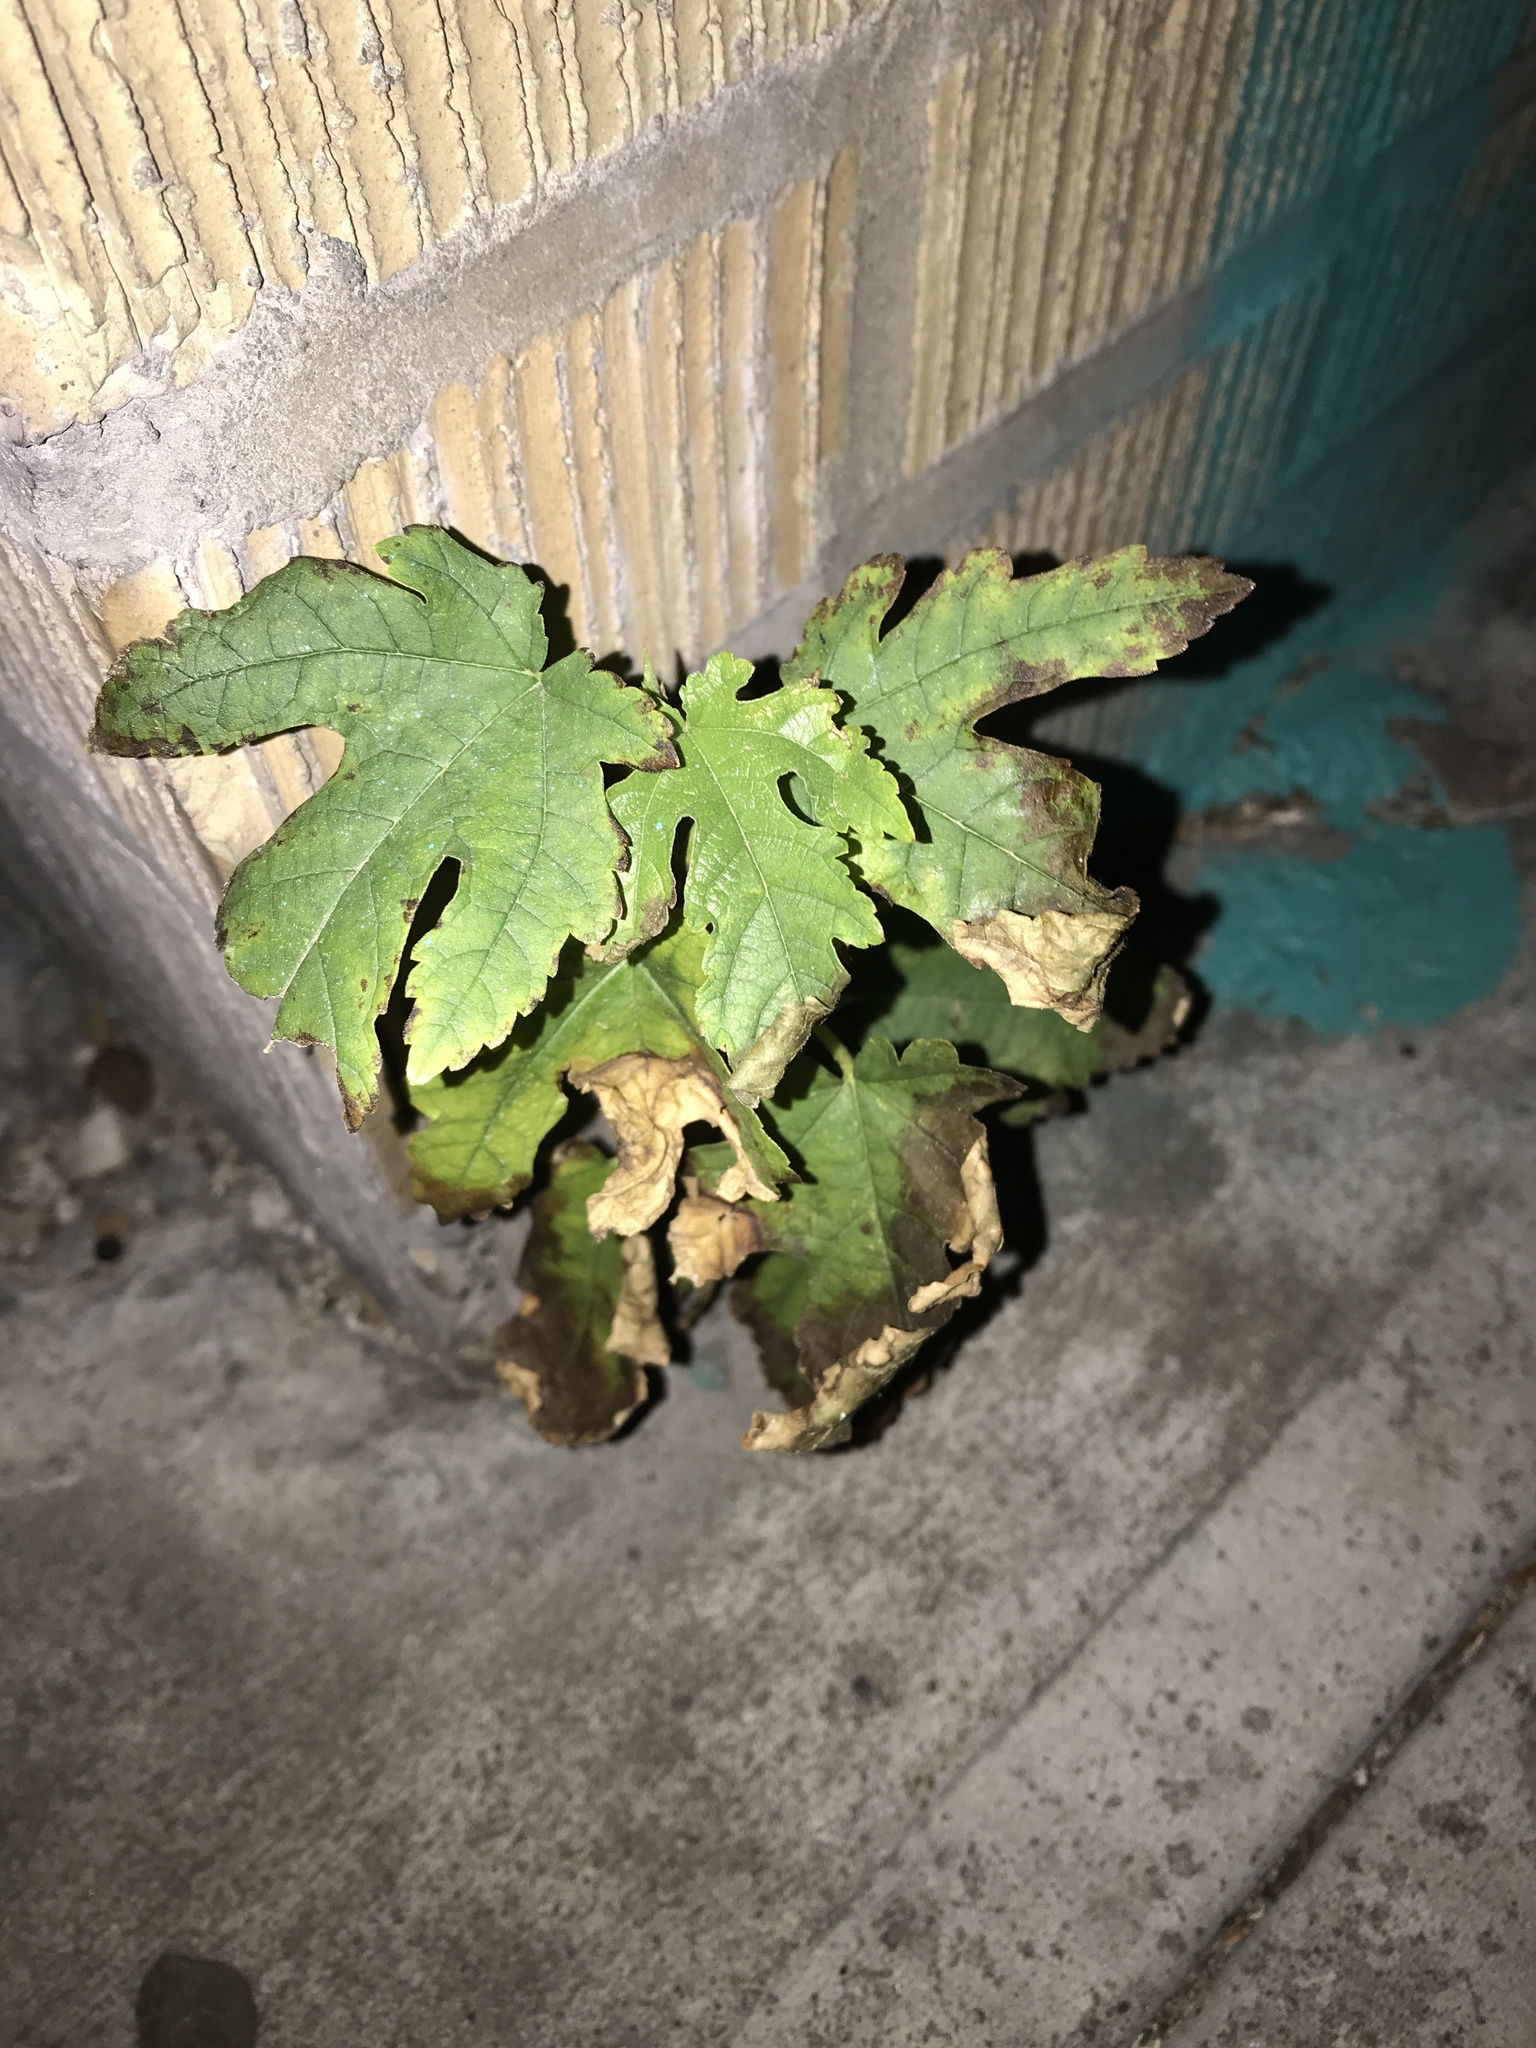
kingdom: Plantae
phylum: Tracheophyta
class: Magnoliopsida
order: Rosales
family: Moraceae
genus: Morus
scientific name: Morus alba
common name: White mulberry
